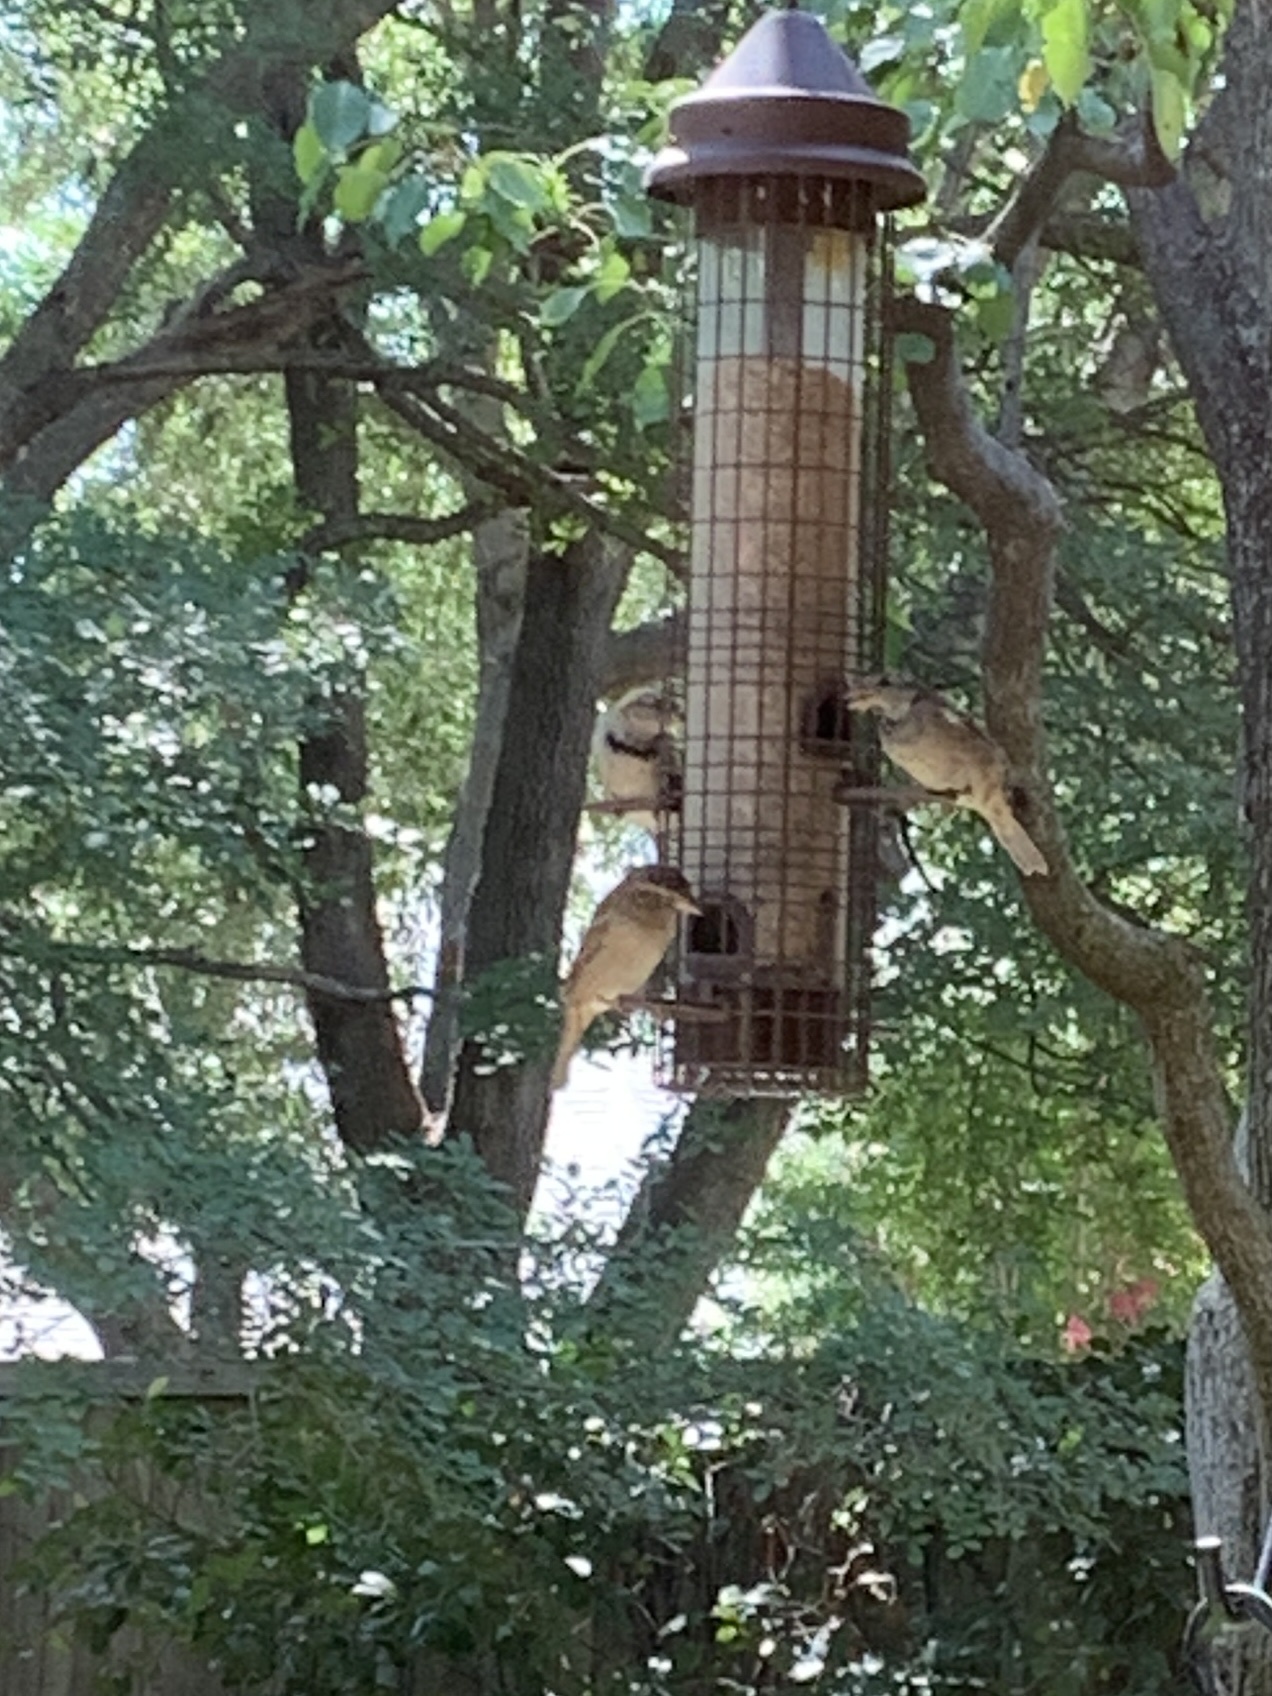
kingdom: Animalia
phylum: Chordata
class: Aves
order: Passeriformes
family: Passeridae
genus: Passer
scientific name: Passer domesticus
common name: House sparrow
